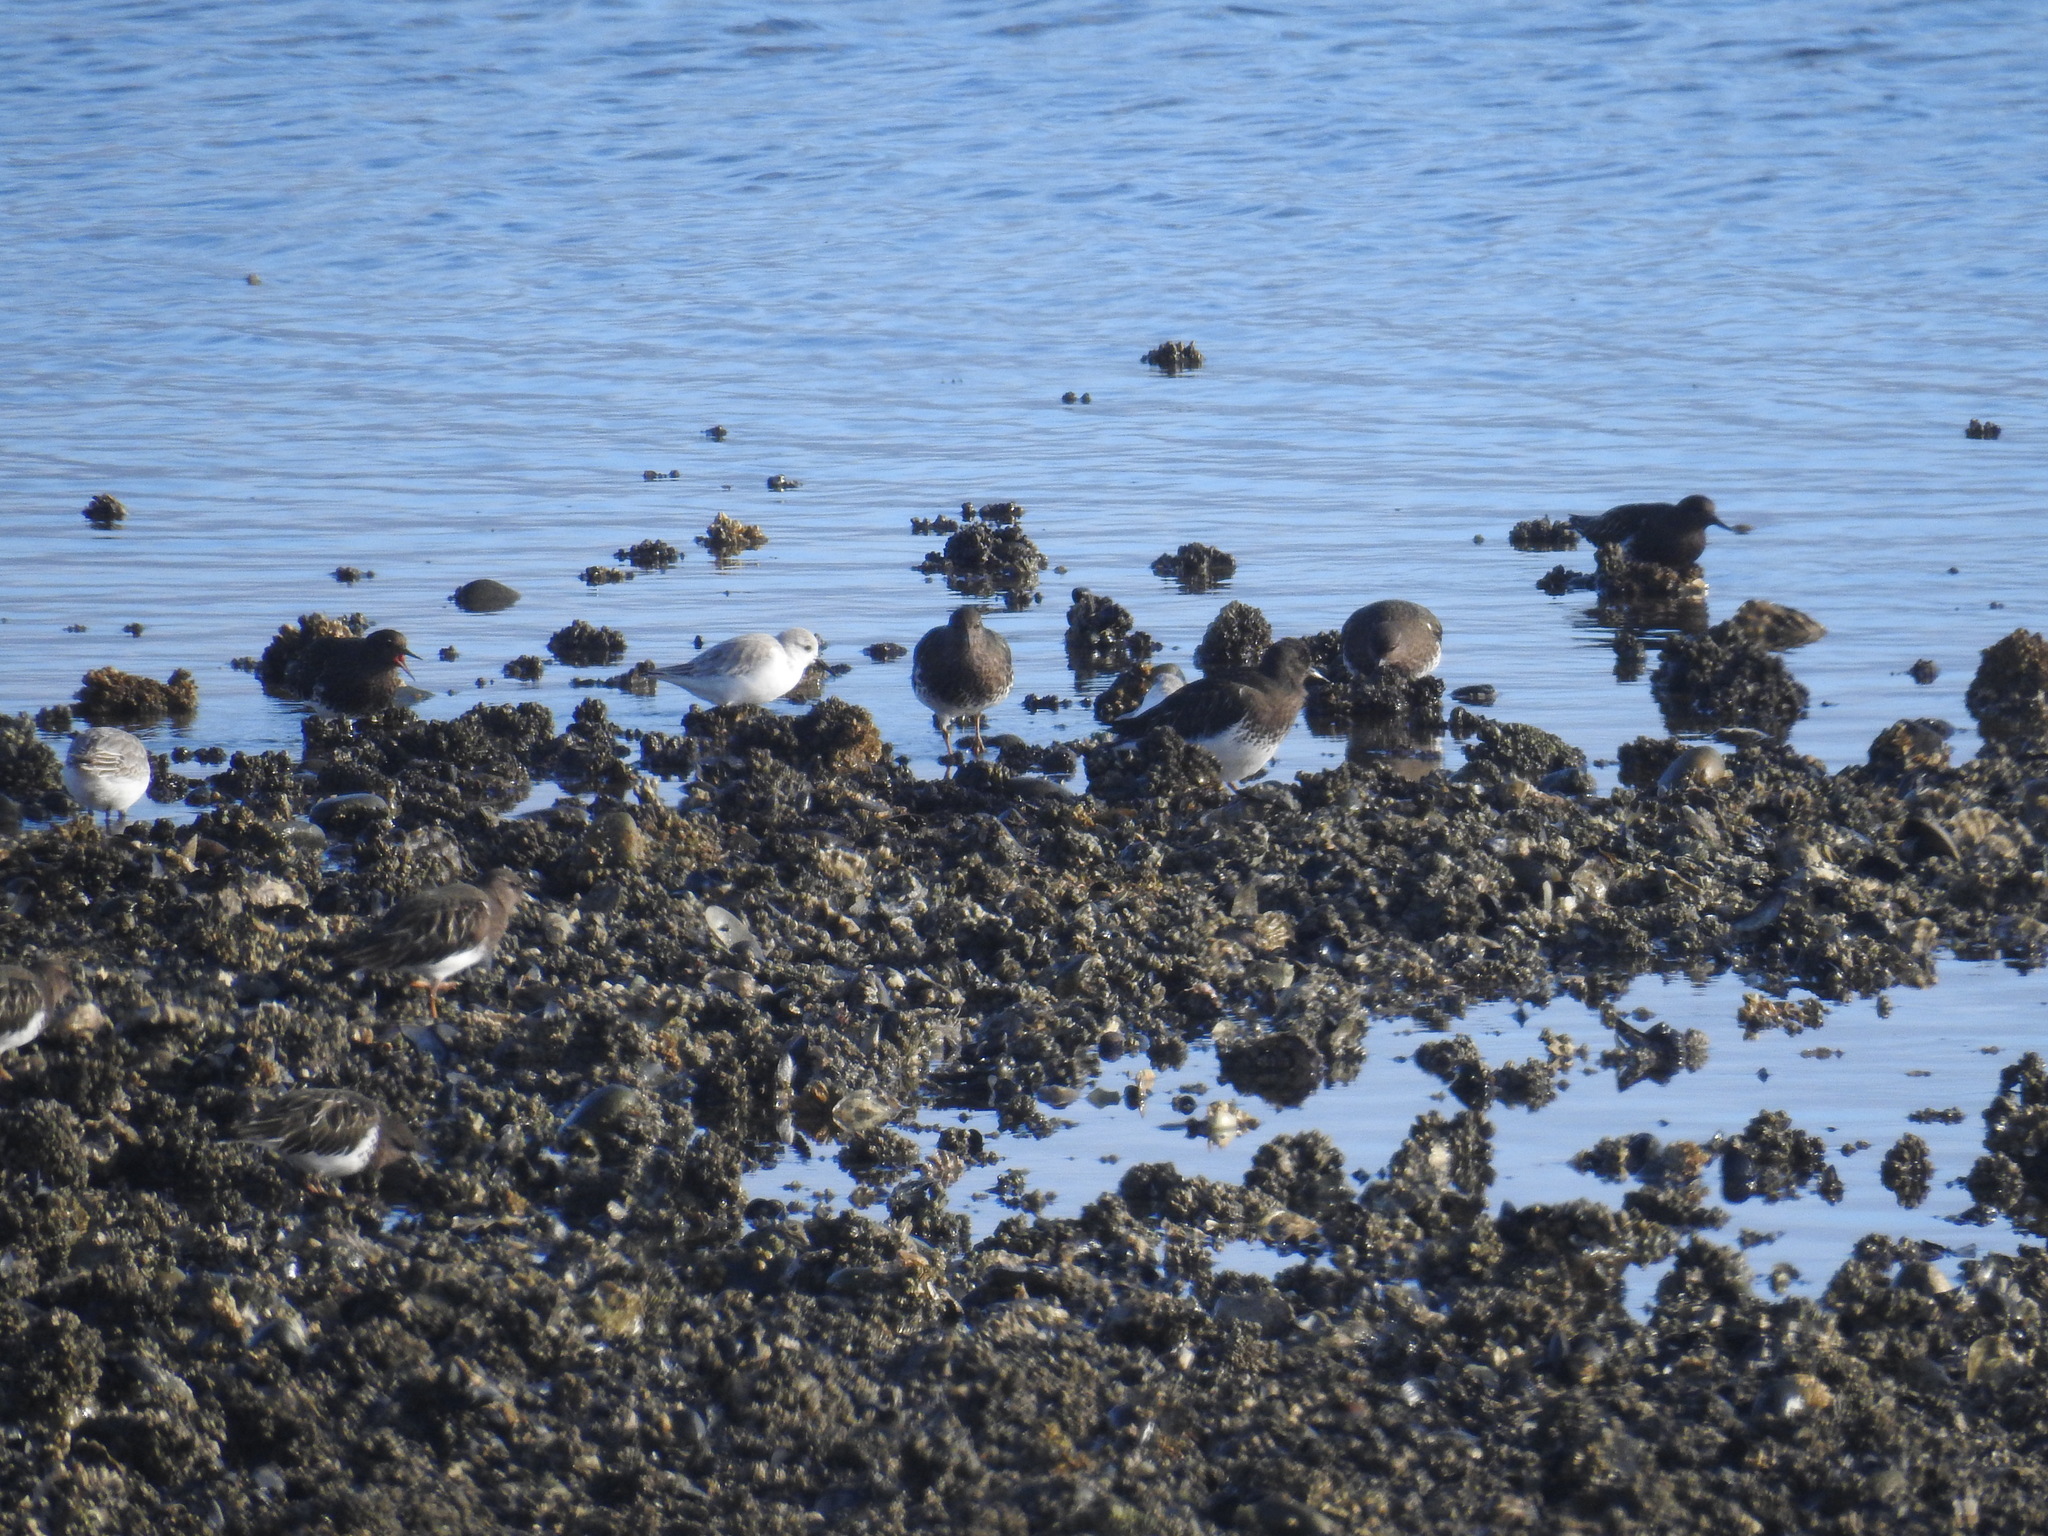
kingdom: Animalia
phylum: Chordata
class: Aves
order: Charadriiformes
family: Scolopacidae
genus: Arenaria
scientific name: Arenaria melanocephala
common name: Black turnstone
